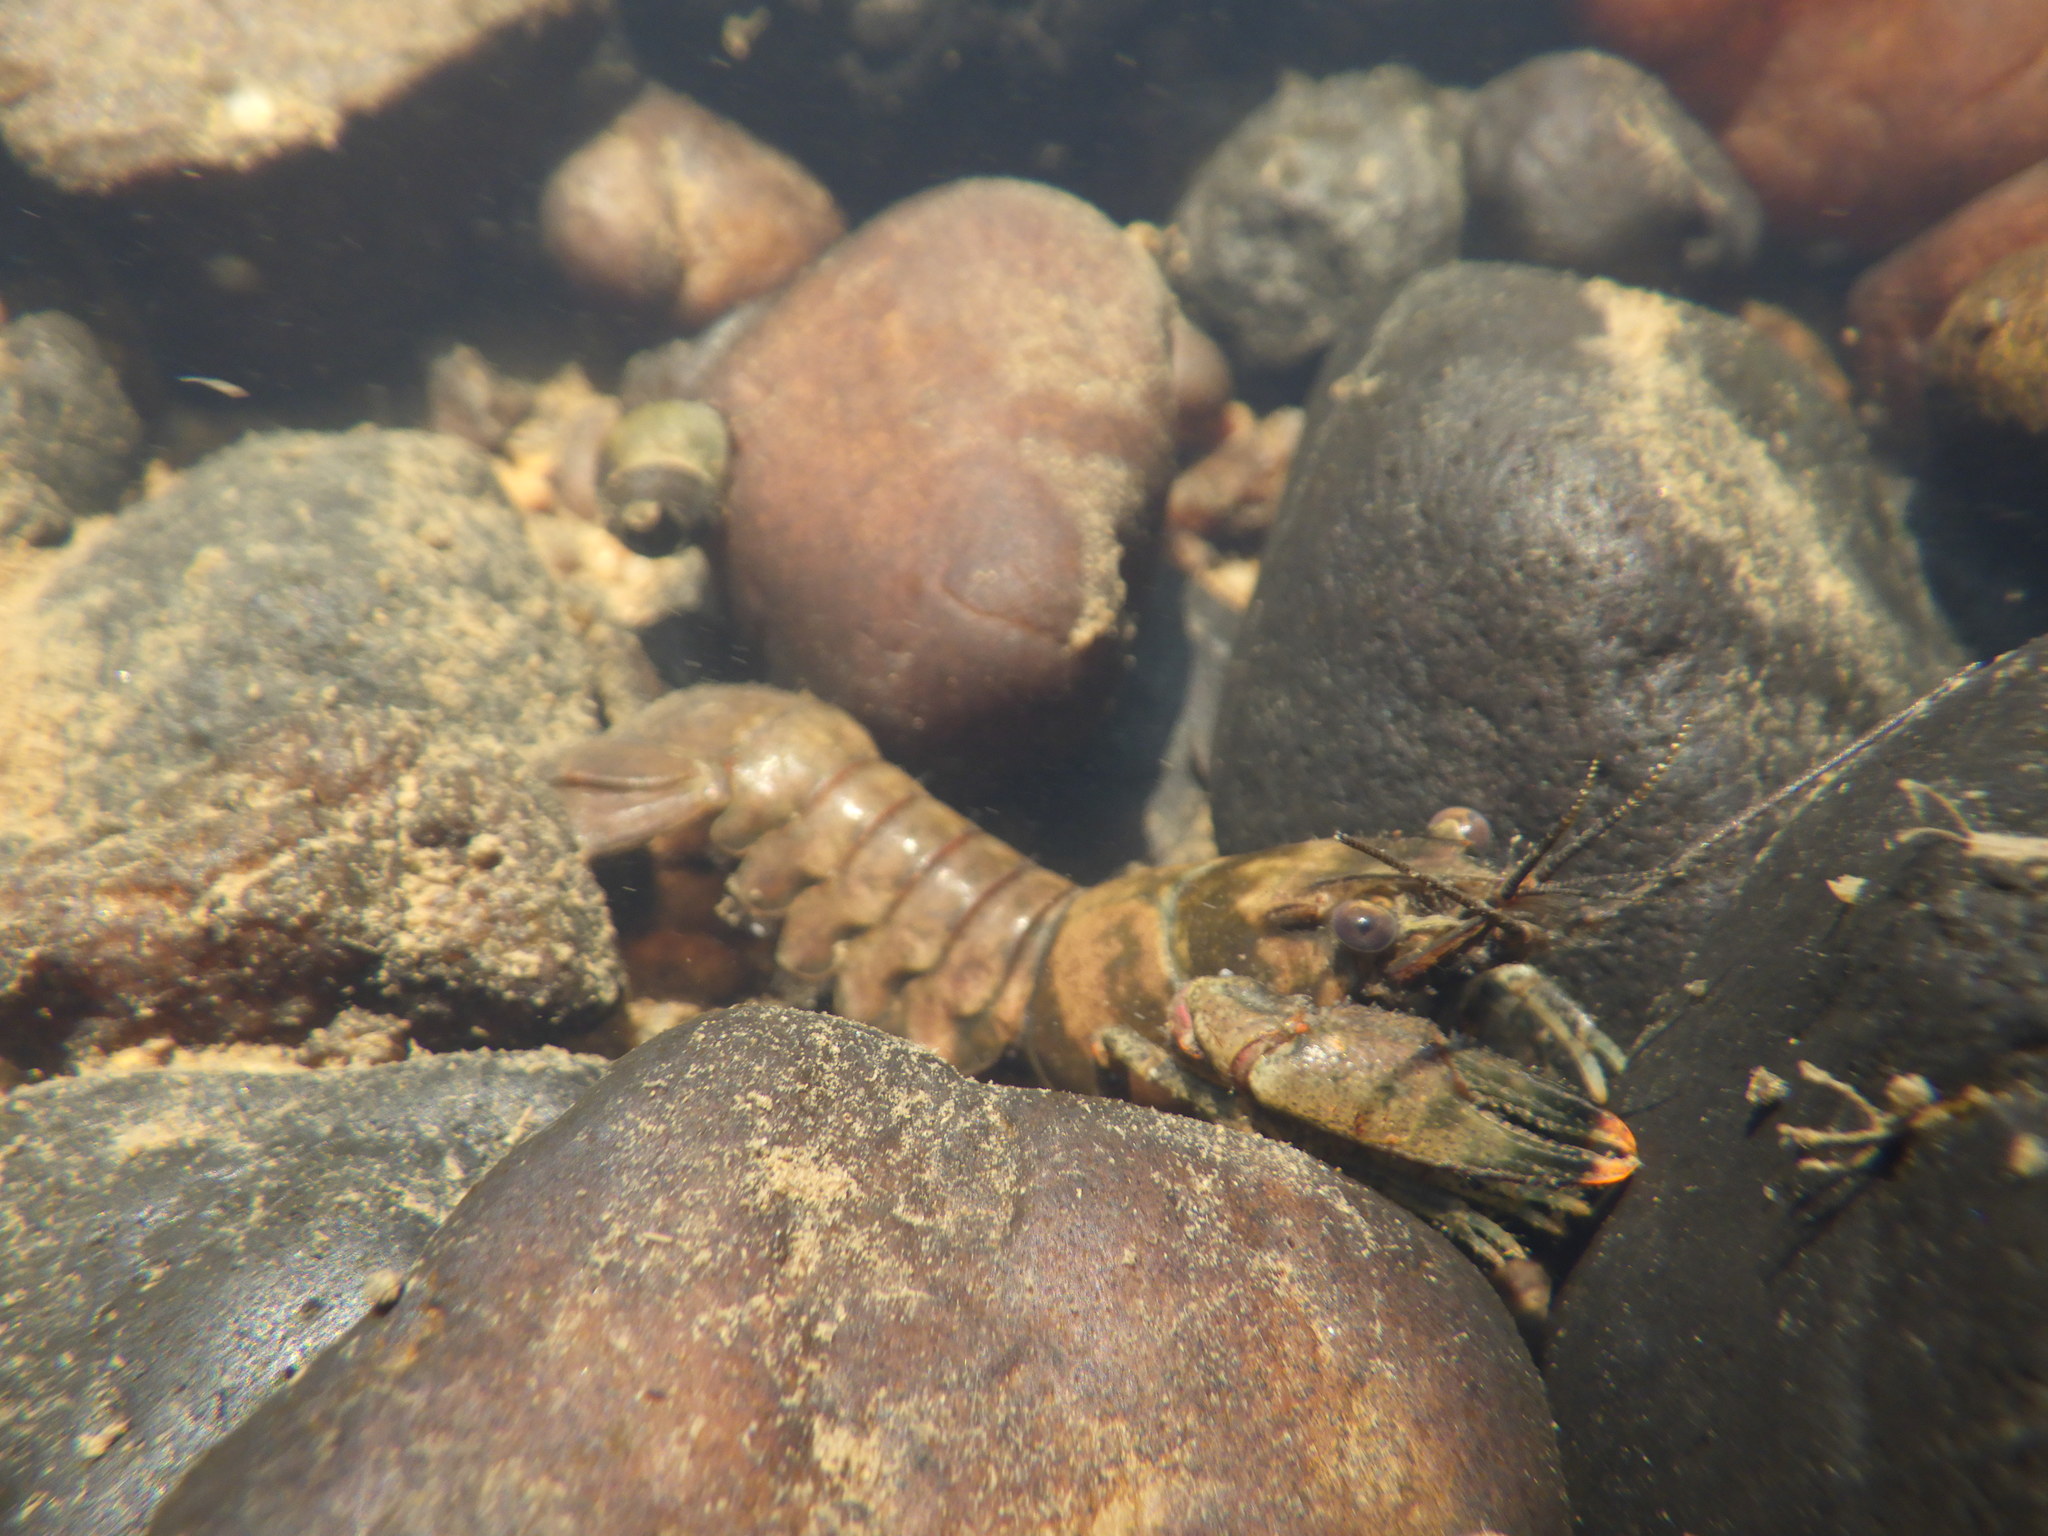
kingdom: Animalia
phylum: Arthropoda
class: Malacostraca
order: Decapoda
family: Cambaridae
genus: Faxonius
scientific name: Faxonius virginiensis
